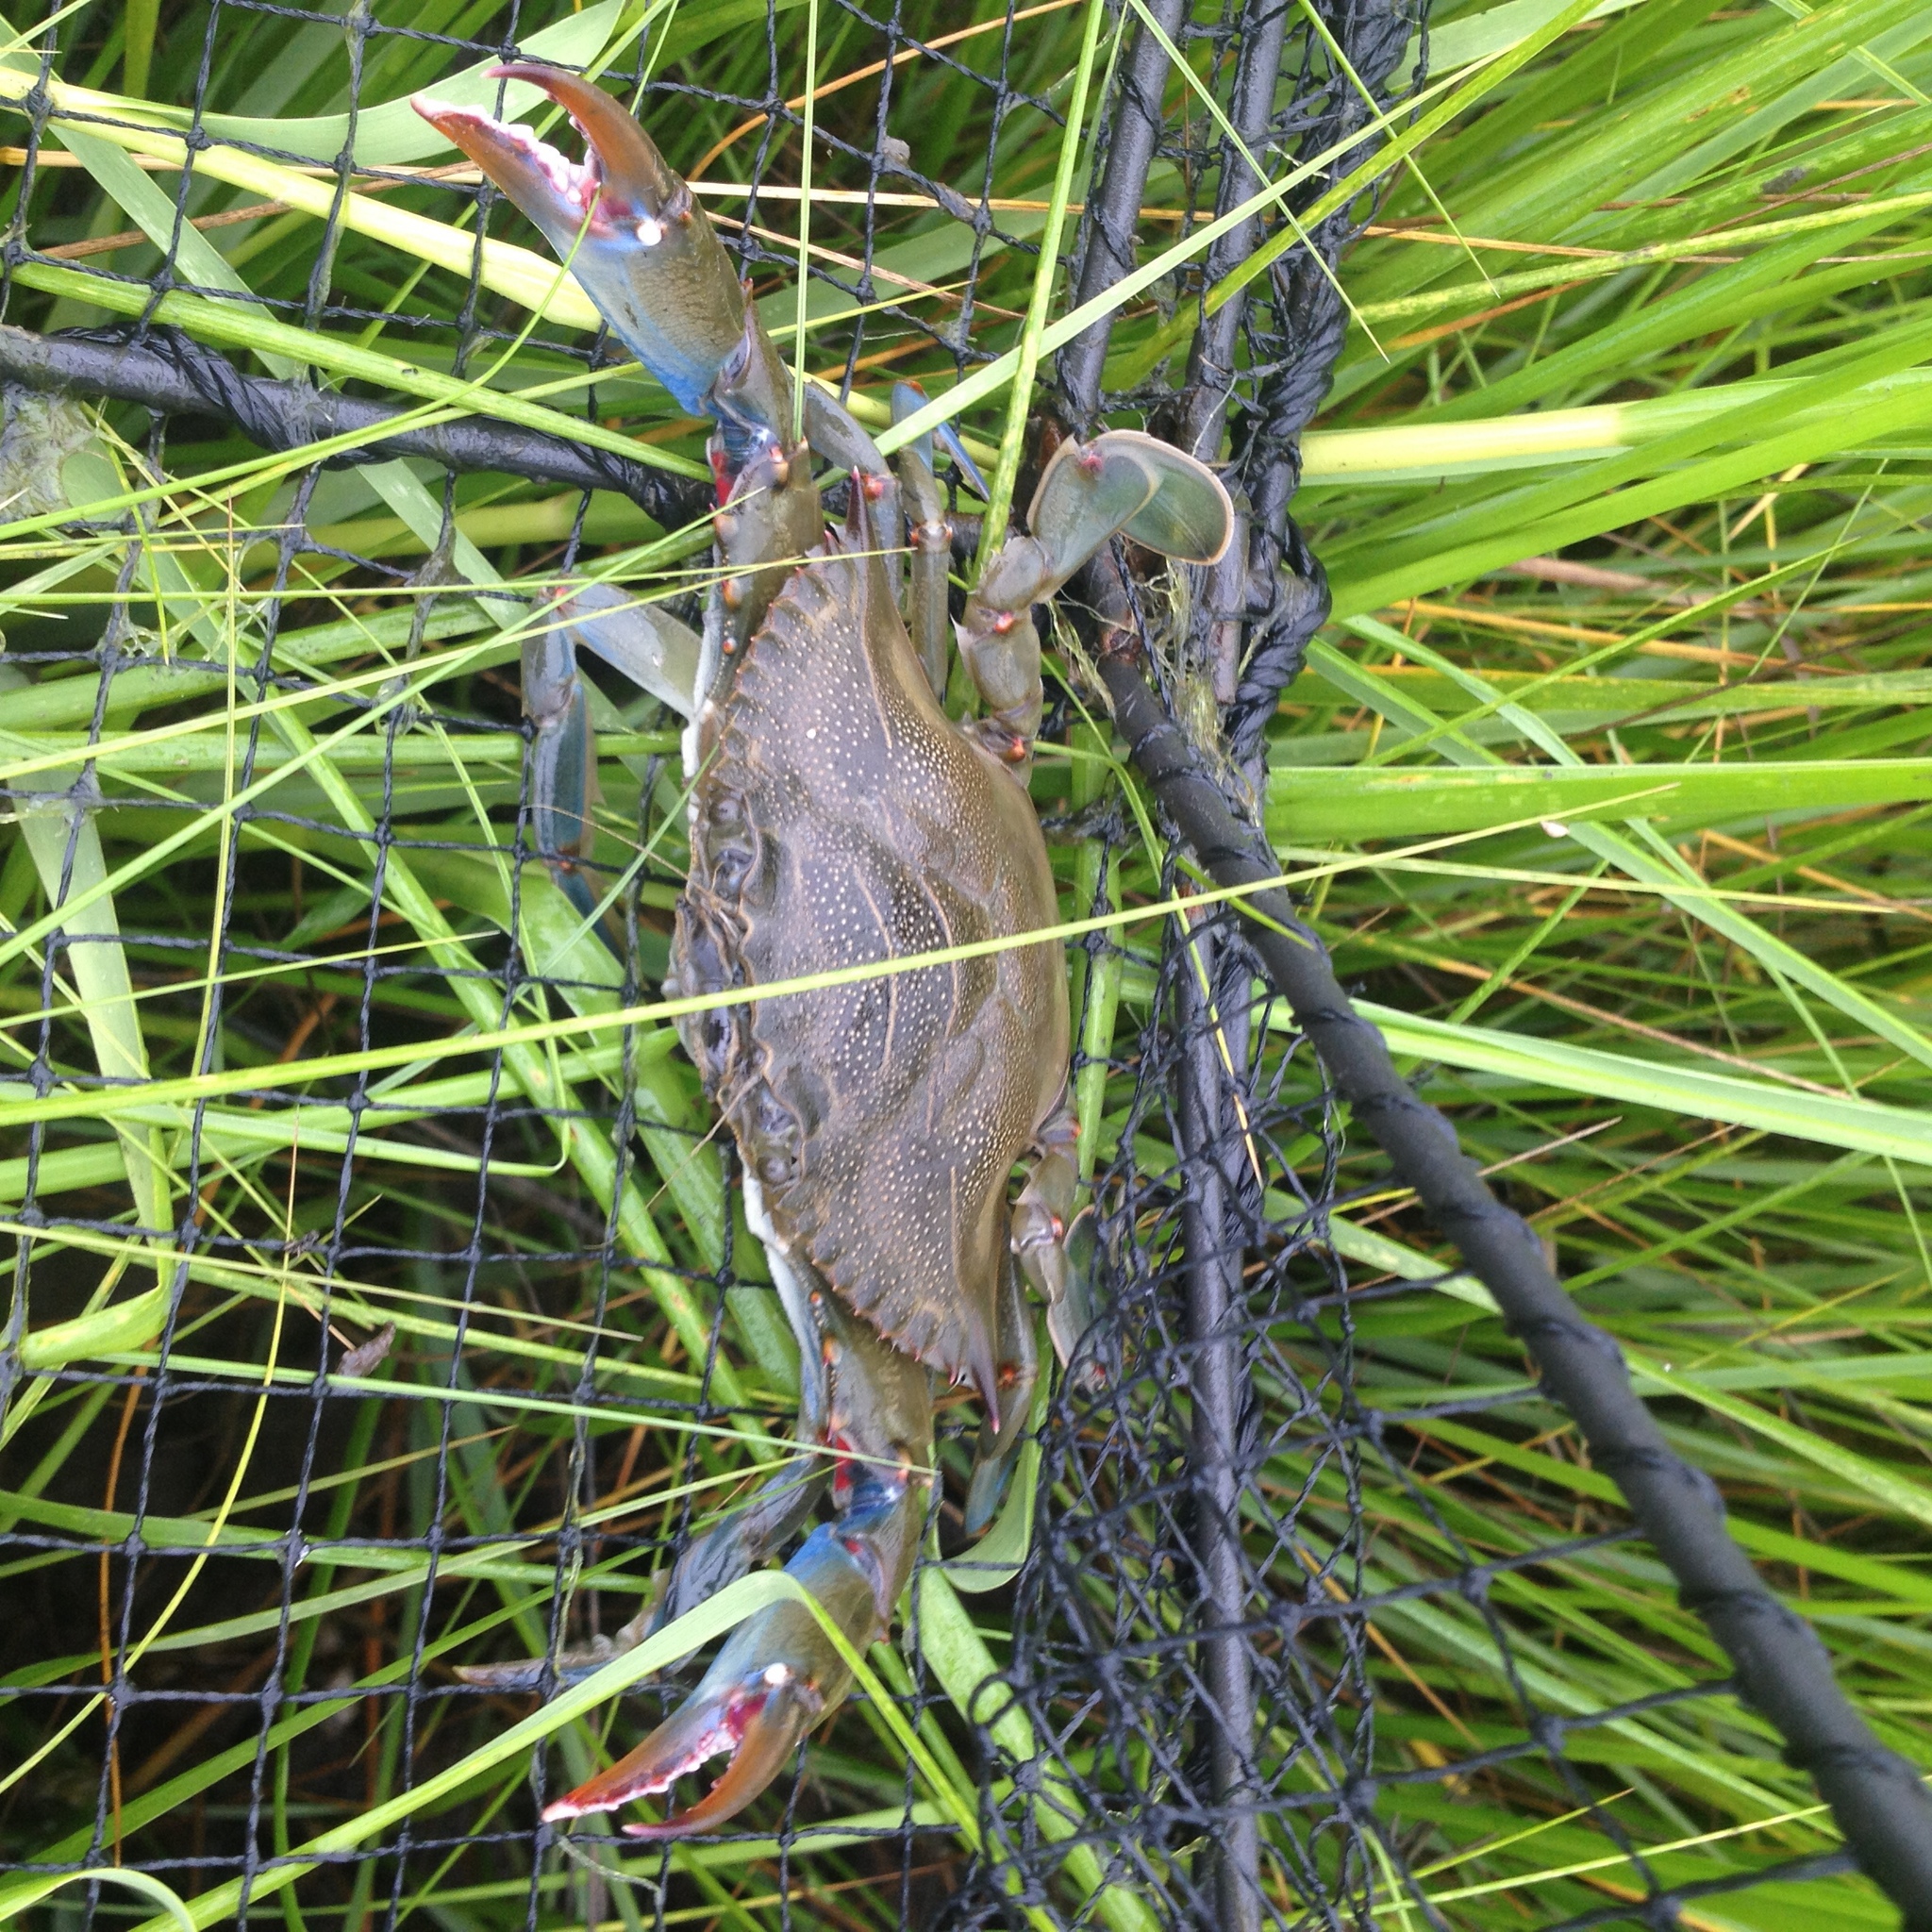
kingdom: Animalia
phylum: Arthropoda
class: Malacostraca
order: Decapoda
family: Portunidae
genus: Callinectes
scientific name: Callinectes sapidus
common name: Blue crab
